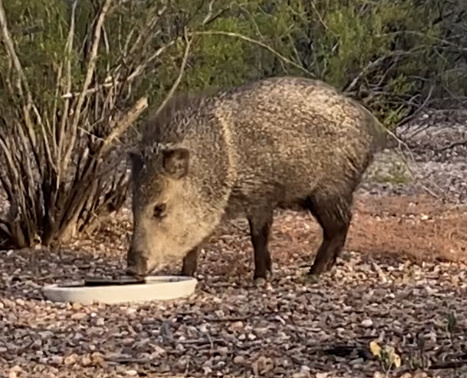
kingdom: Animalia
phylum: Chordata
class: Mammalia
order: Artiodactyla
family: Tayassuidae
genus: Pecari
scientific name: Pecari tajacu
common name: Collared peccary
